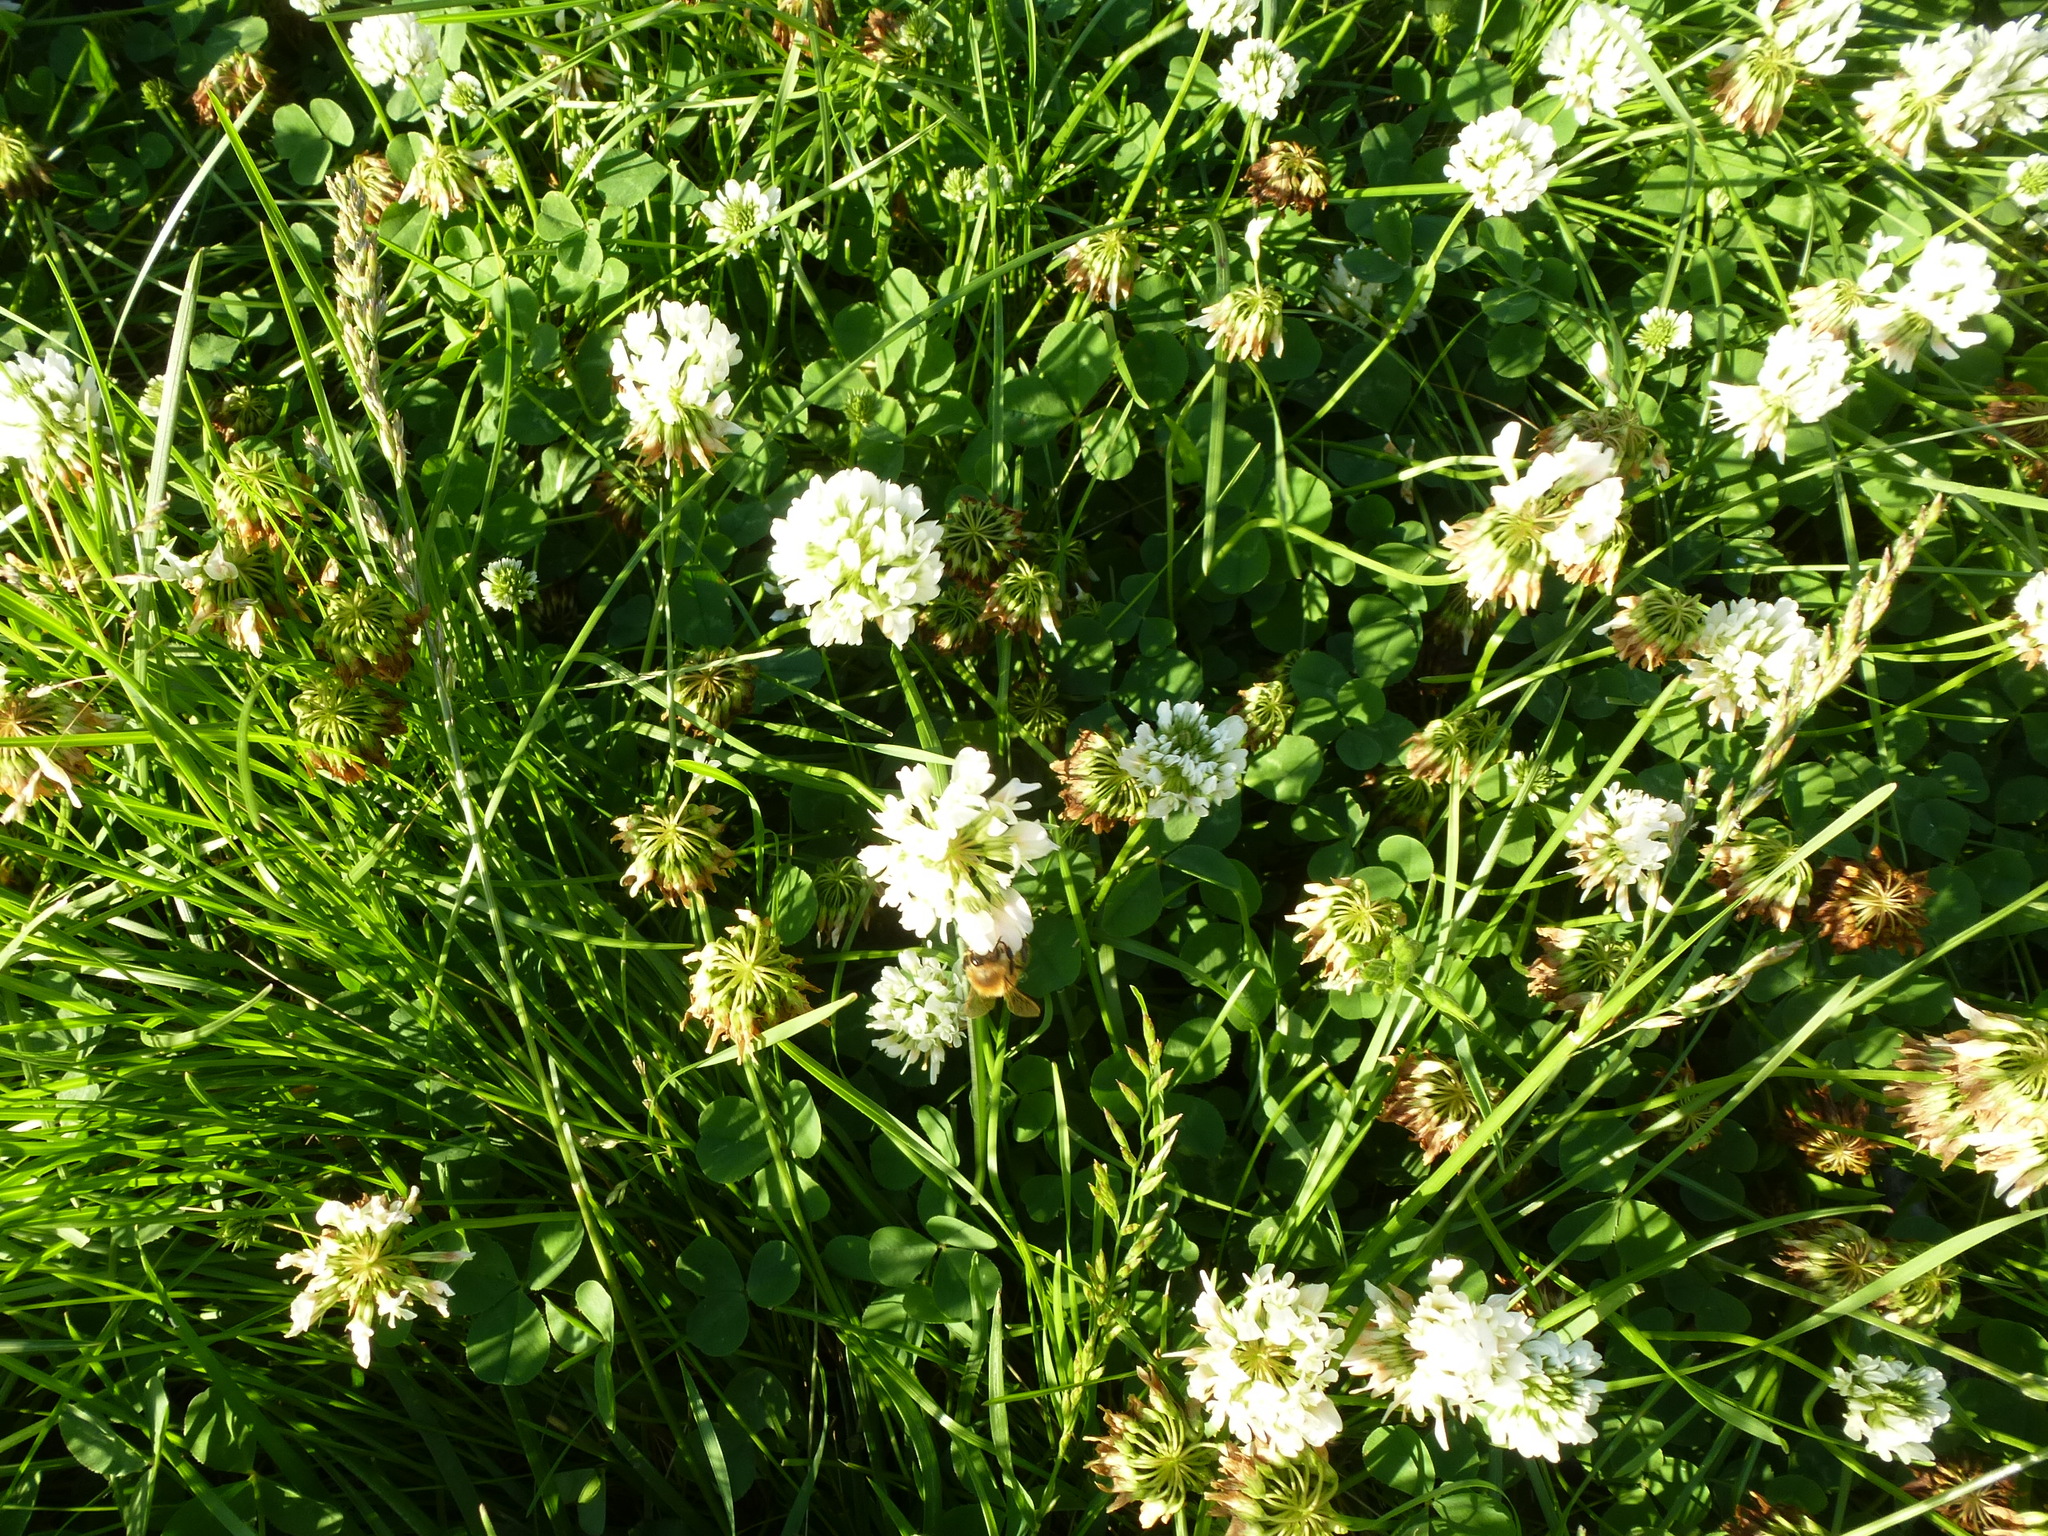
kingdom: Plantae
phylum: Tracheophyta
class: Magnoliopsida
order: Fabales
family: Fabaceae
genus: Trifolium
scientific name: Trifolium repens
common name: White clover
